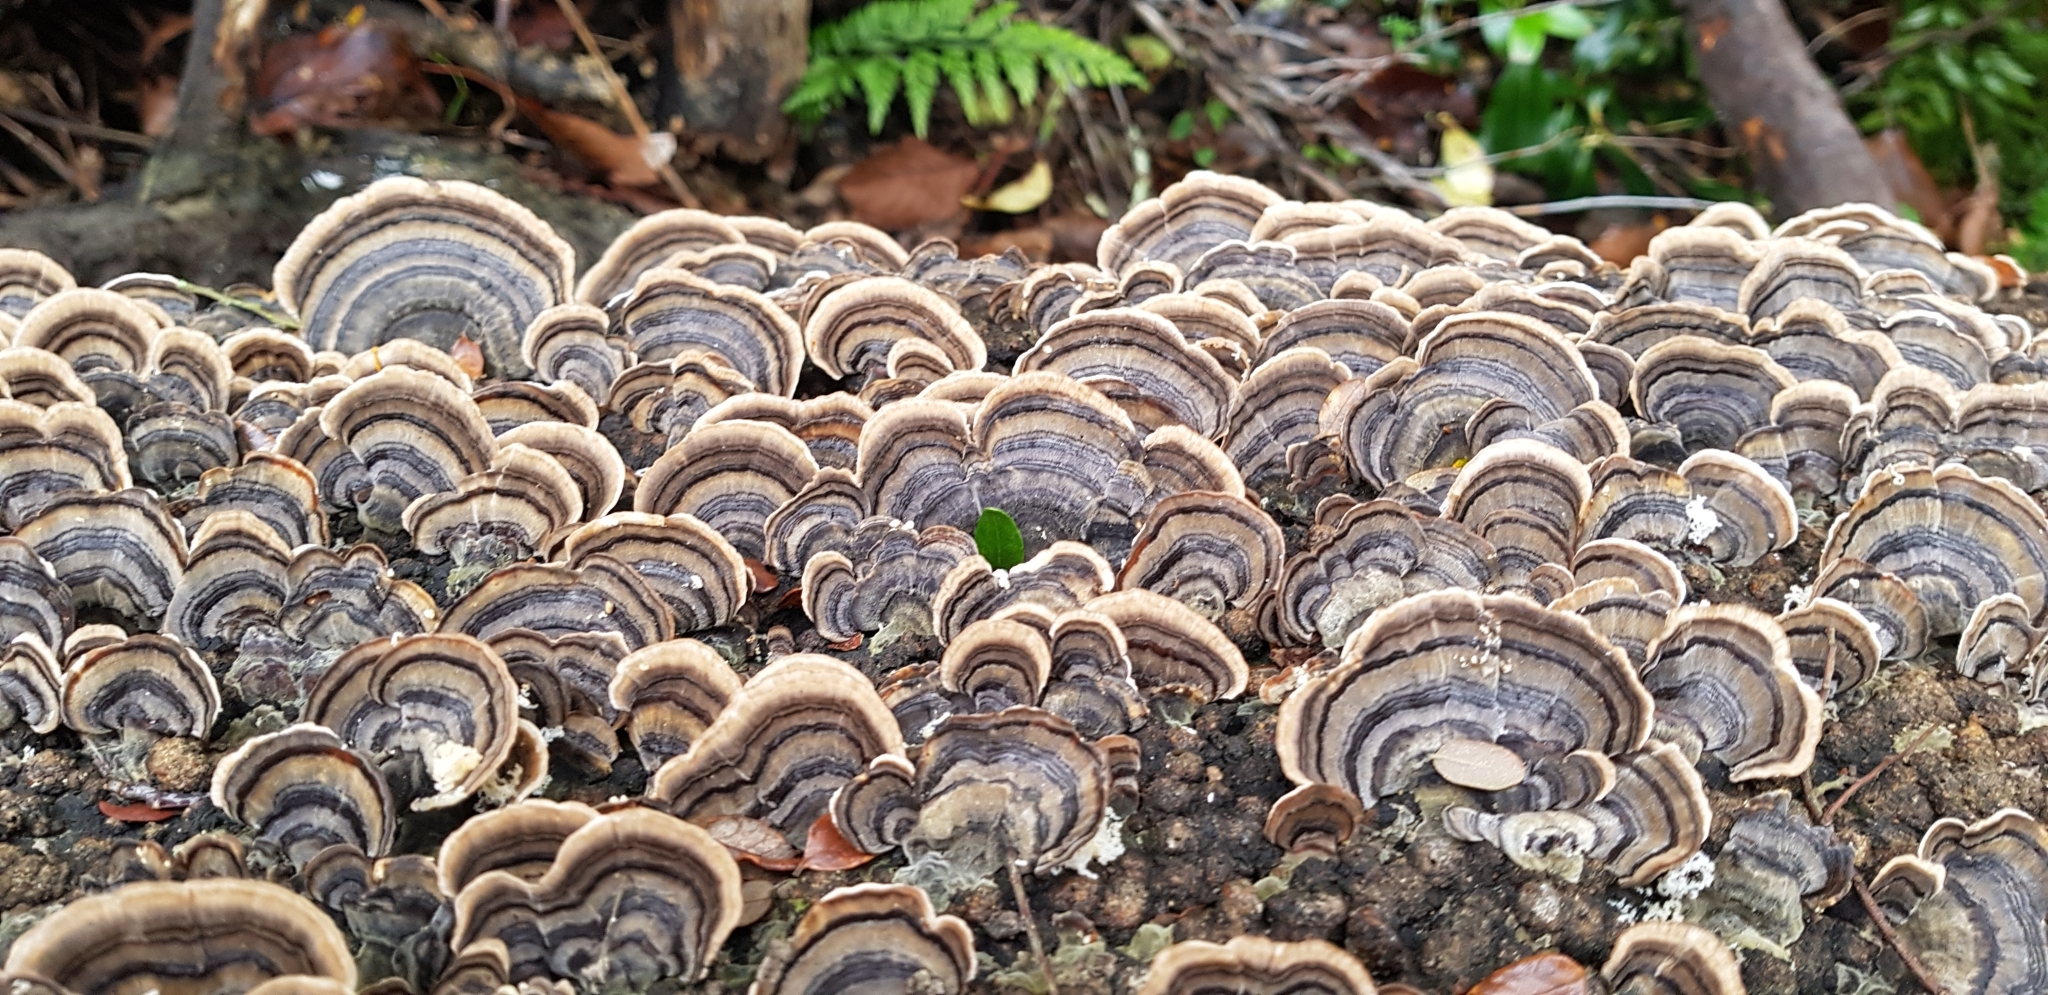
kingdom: Fungi
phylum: Basidiomycota
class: Agaricomycetes
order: Polyporales
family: Polyporaceae
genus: Trametes
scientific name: Trametes versicolor
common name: Turkeytail
